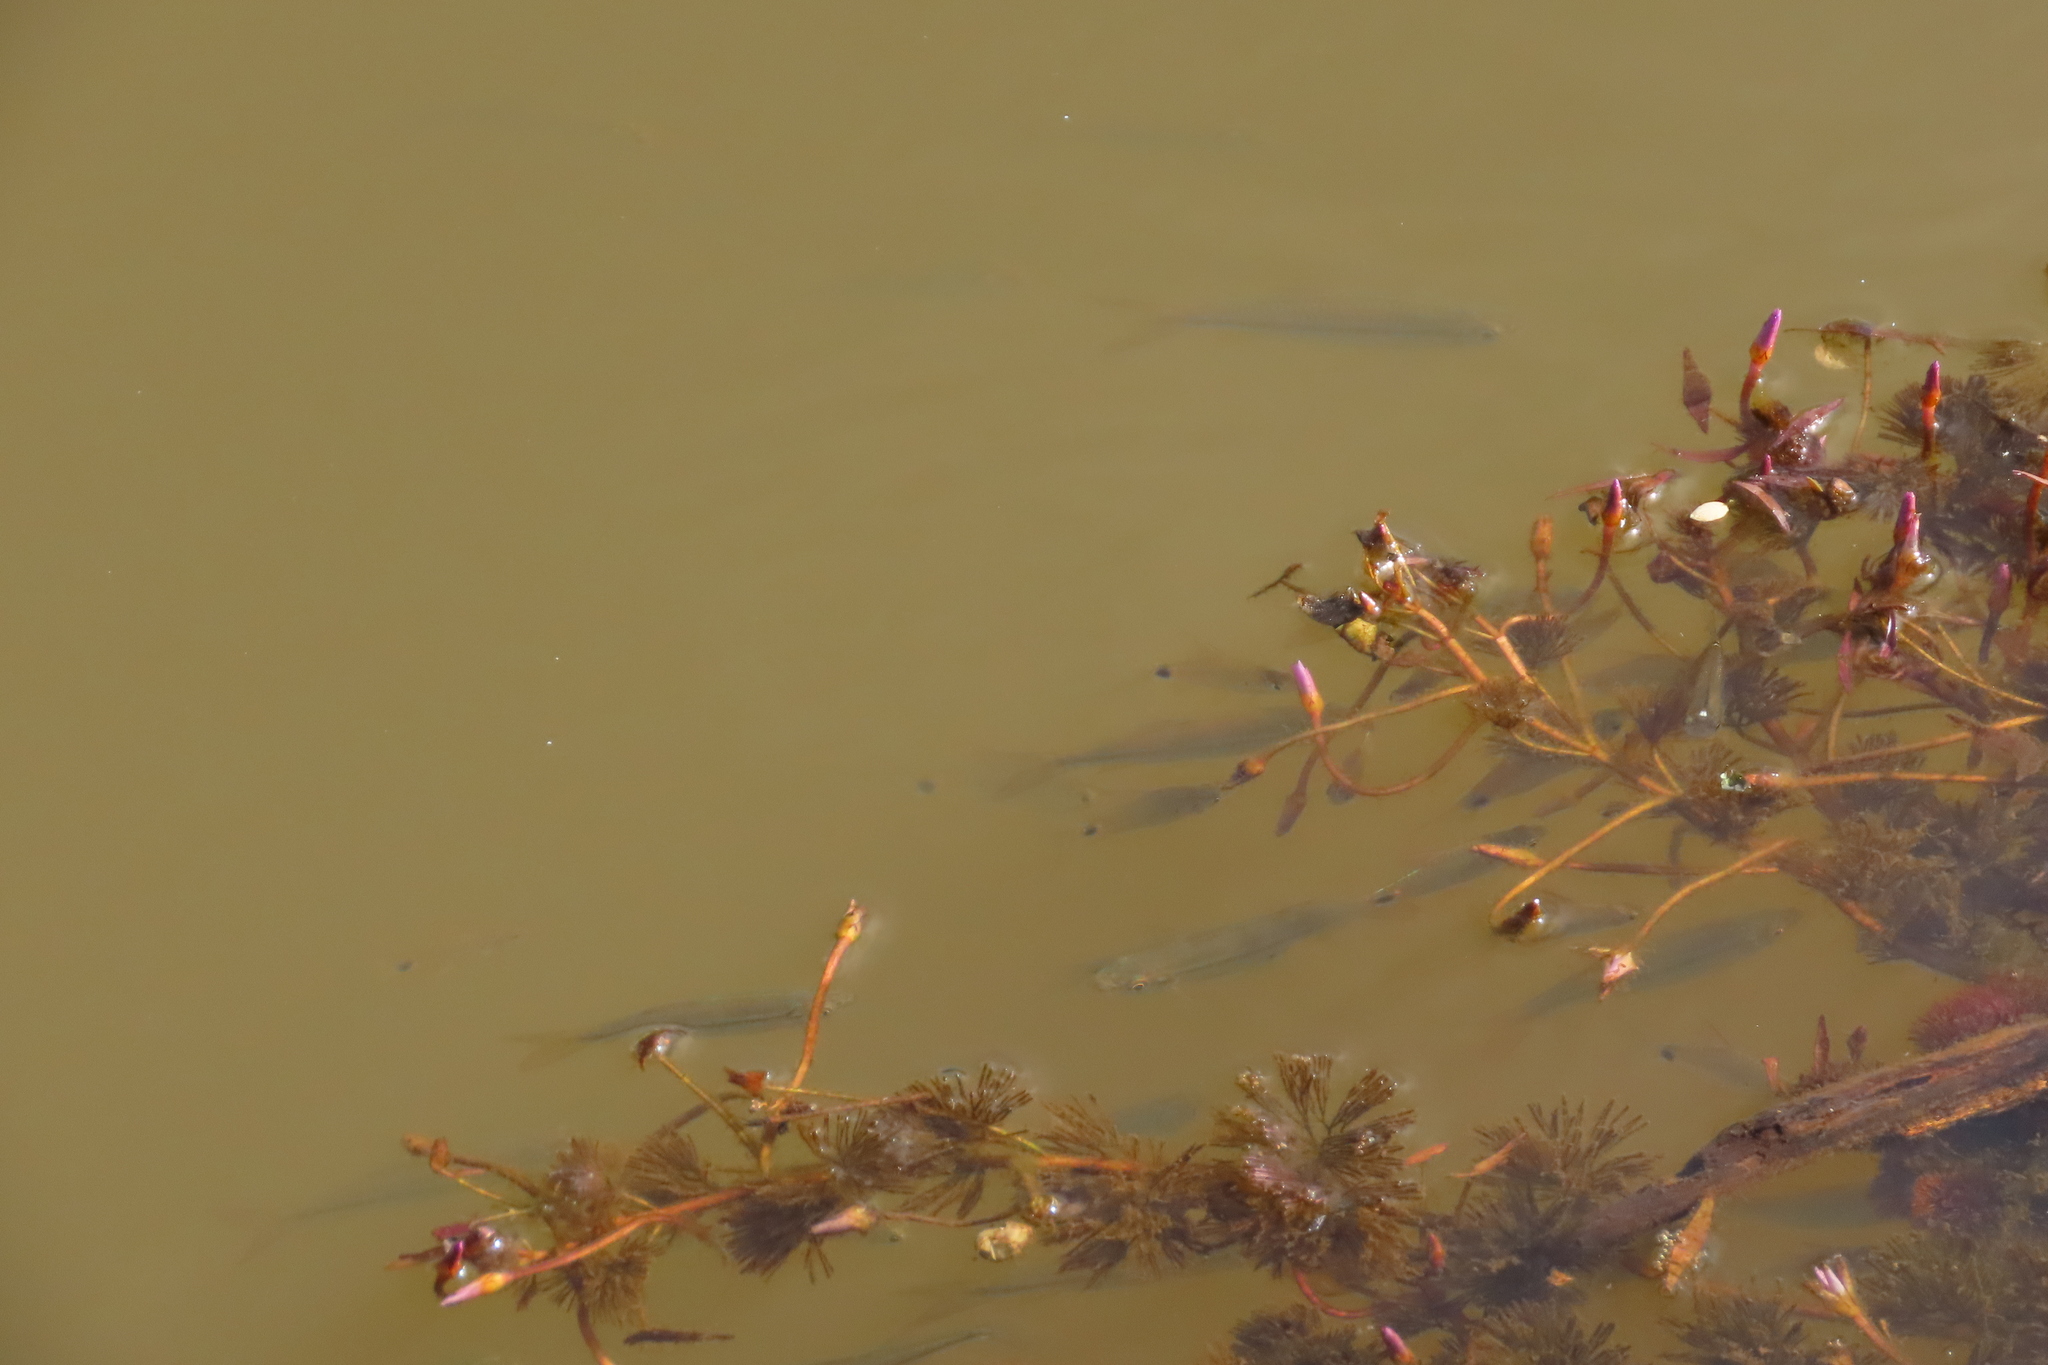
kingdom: Plantae
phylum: Tracheophyta
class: Magnoliopsida
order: Nymphaeales
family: Cabombaceae
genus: Cabomba
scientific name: Cabomba furcata
